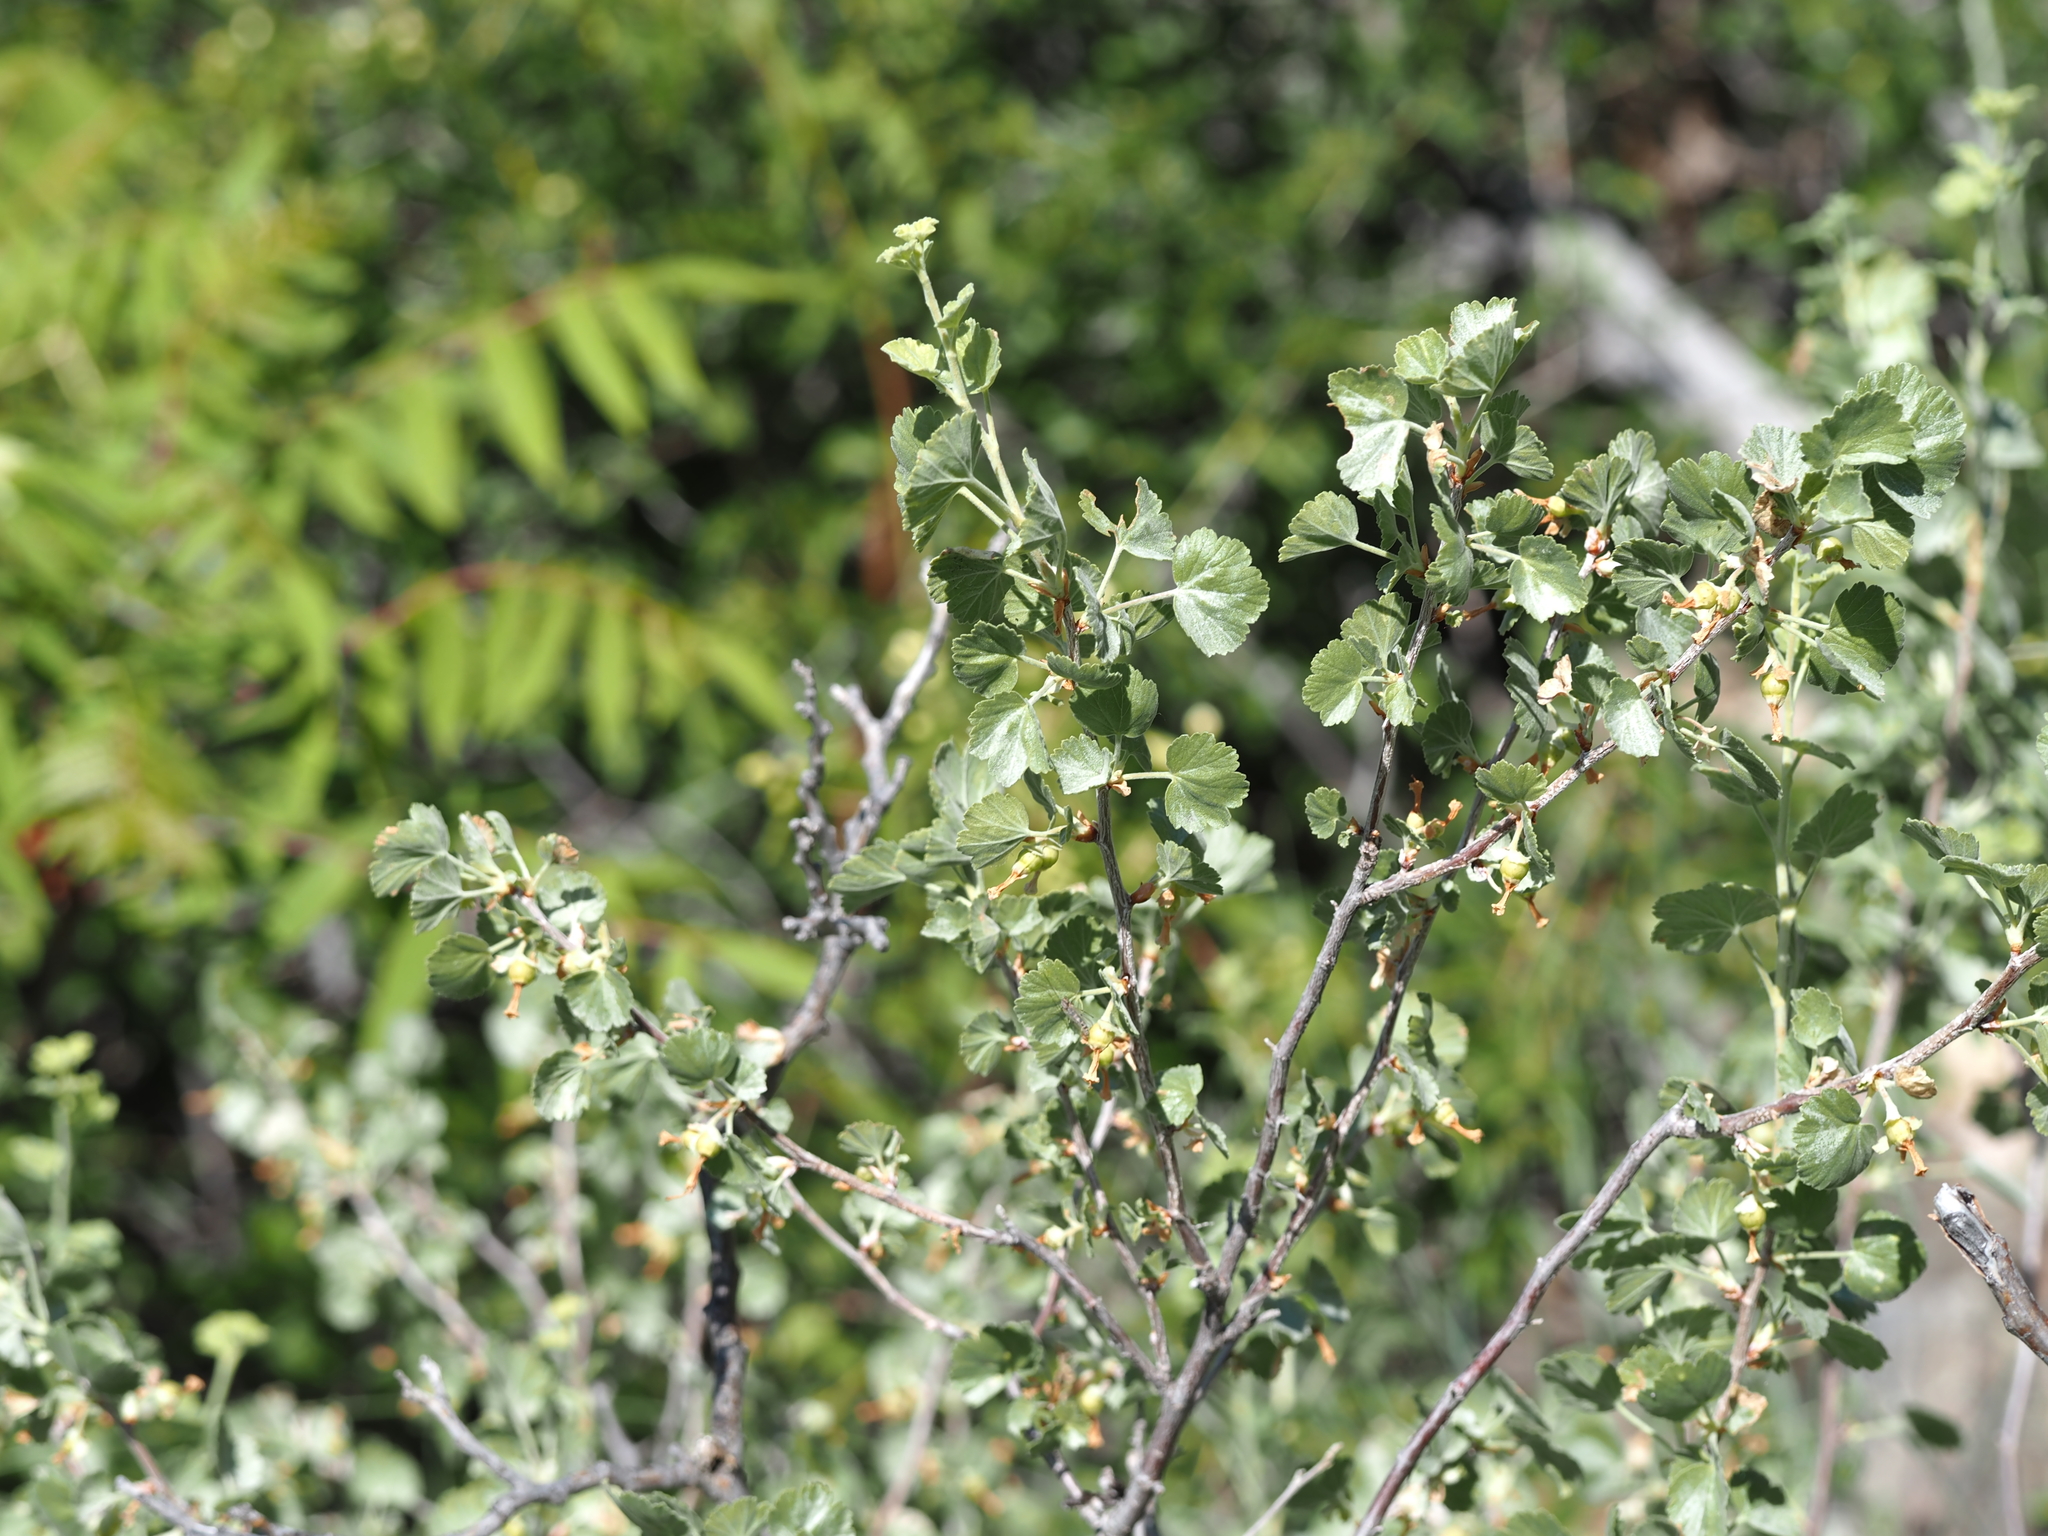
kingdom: Plantae
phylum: Tracheophyta
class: Magnoliopsida
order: Saxifragales
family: Grossulariaceae
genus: Ribes
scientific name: Ribes cereum
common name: Wax currant
